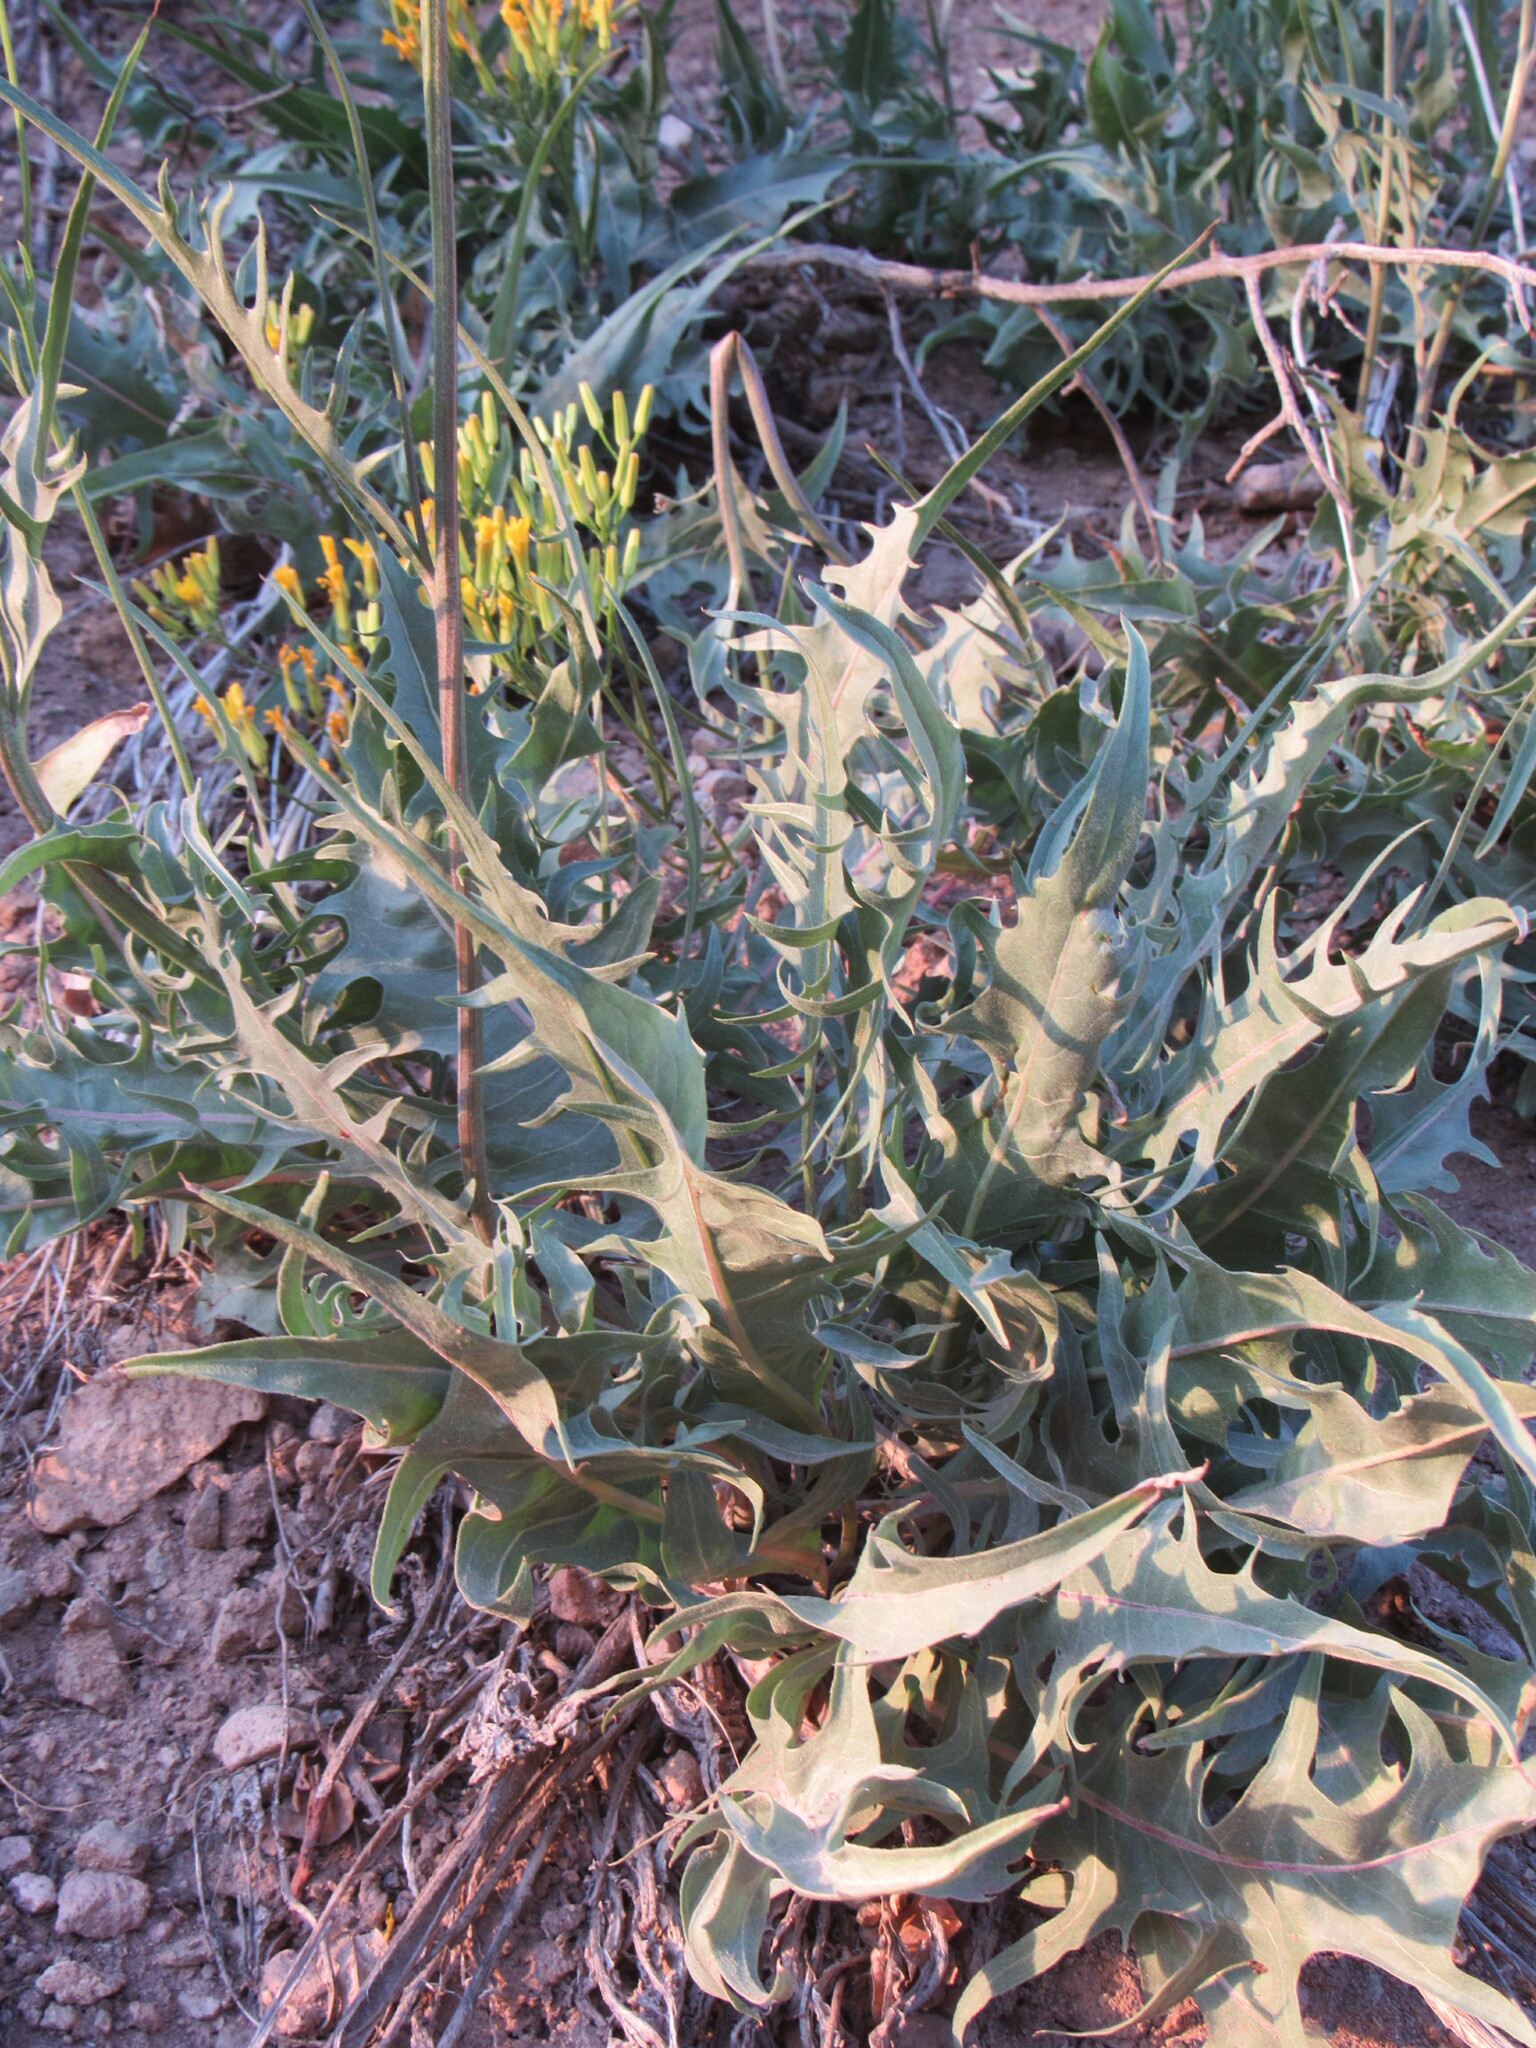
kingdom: Plantae
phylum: Tracheophyta
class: Magnoliopsida
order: Asterales
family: Asteraceae
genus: Crepis
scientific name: Crepis acuminata
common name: Longleaf hawk's-beard
